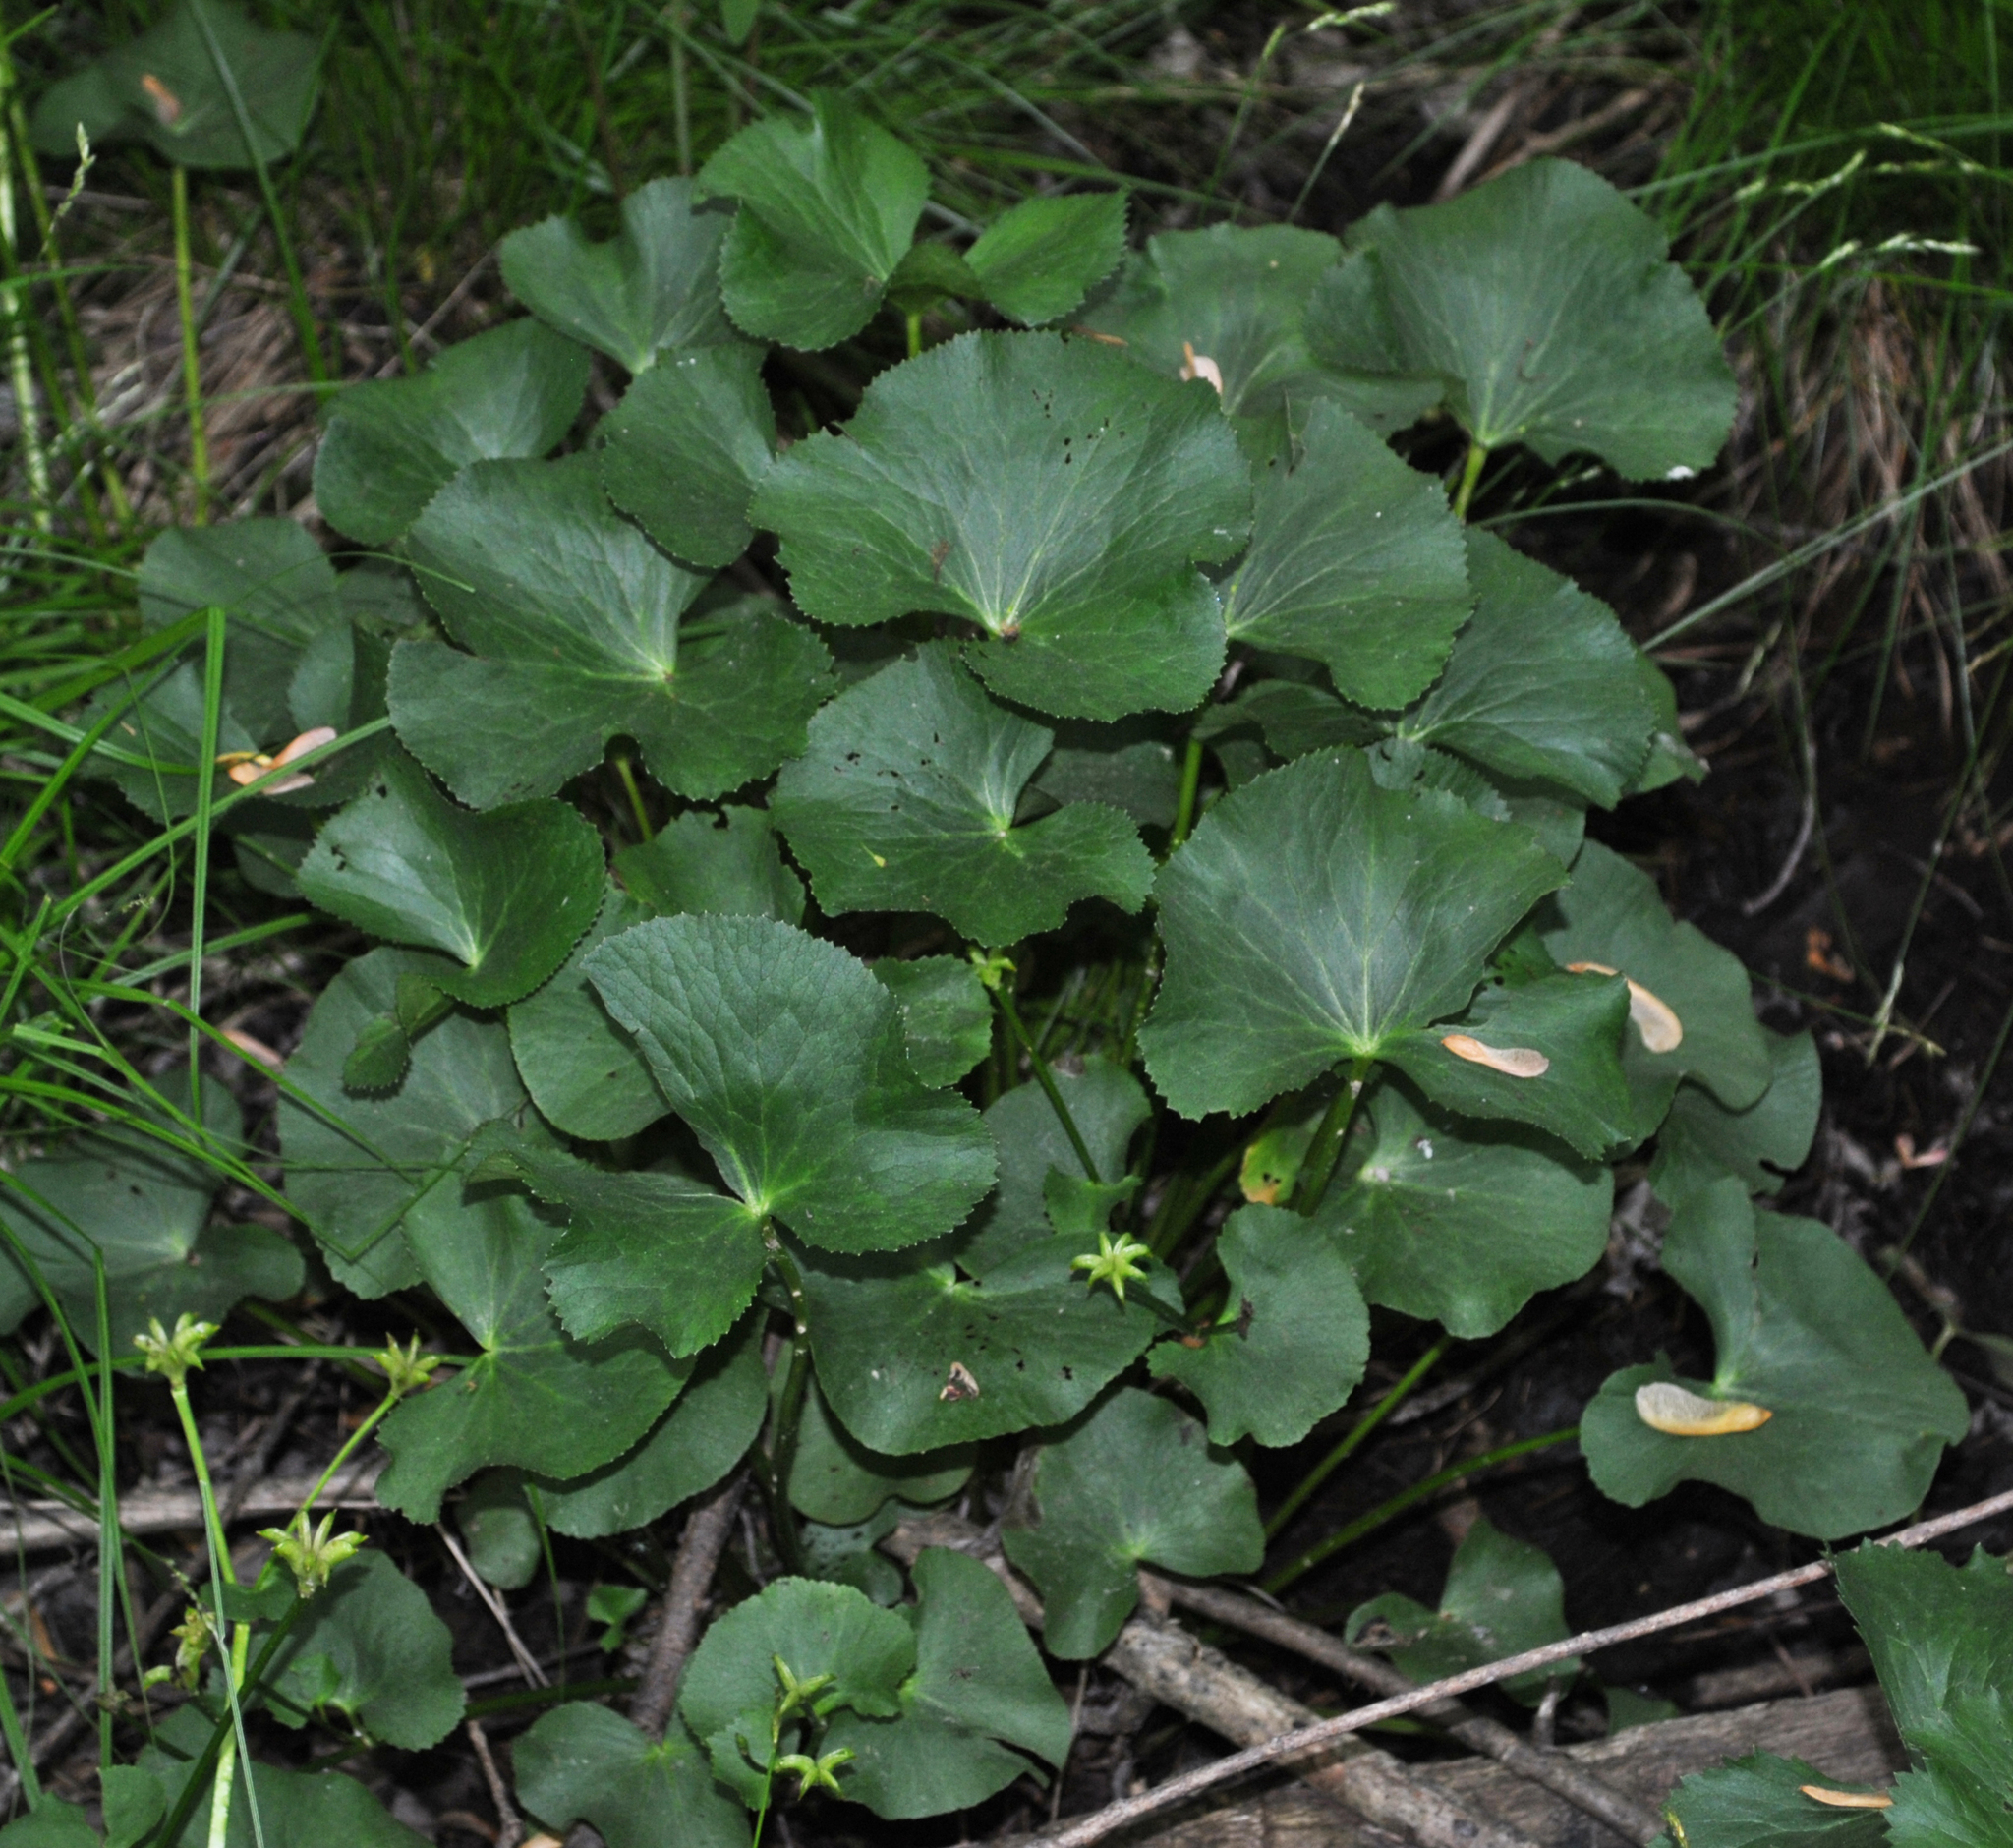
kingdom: Plantae
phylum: Tracheophyta
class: Magnoliopsida
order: Ranunculales
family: Ranunculaceae
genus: Caltha
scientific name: Caltha palustris
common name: Marsh marigold
